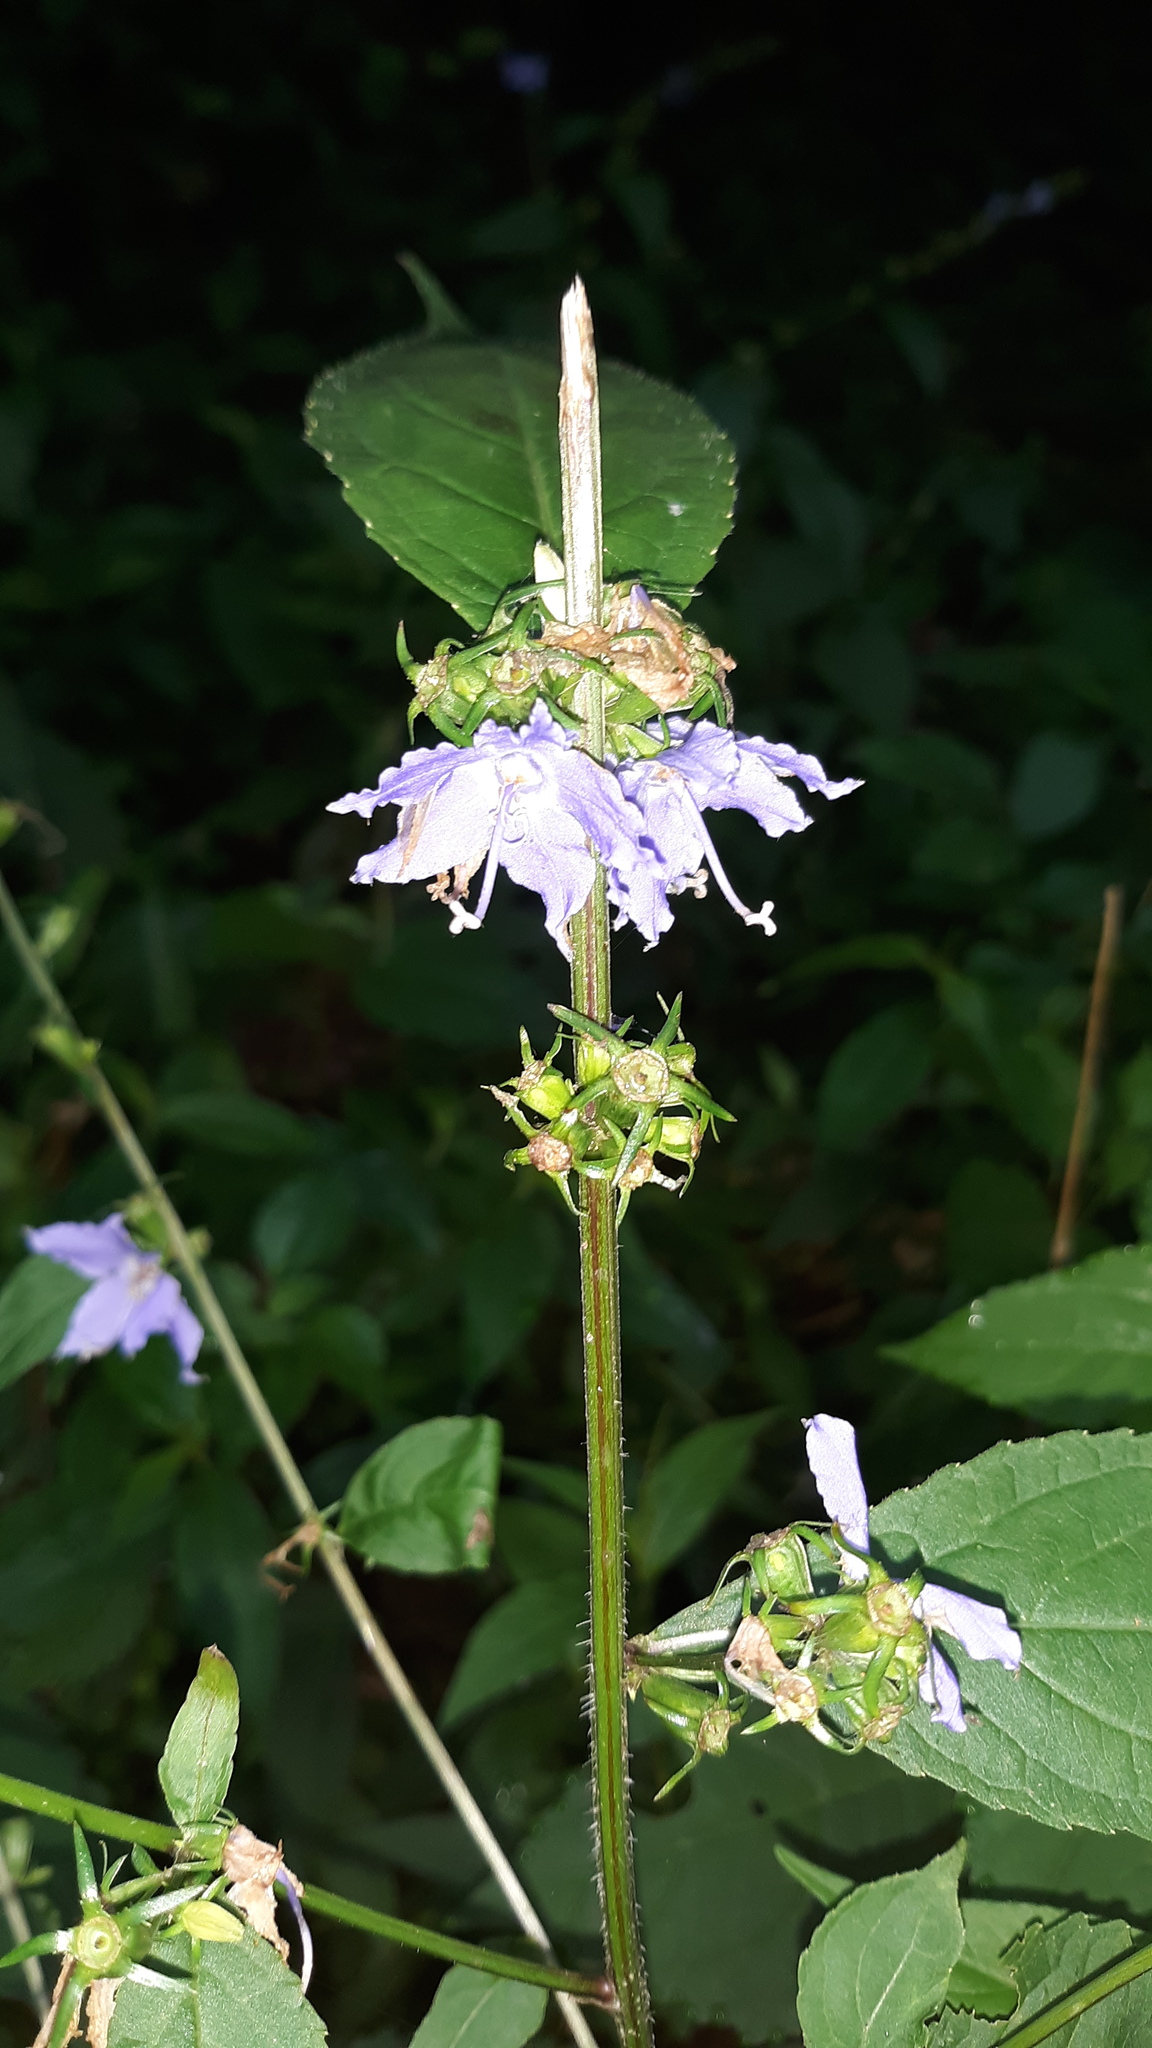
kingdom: Plantae
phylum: Tracheophyta
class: Magnoliopsida
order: Asterales
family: Campanulaceae
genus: Campanulastrum
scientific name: Campanulastrum americanum
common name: American bellflower
